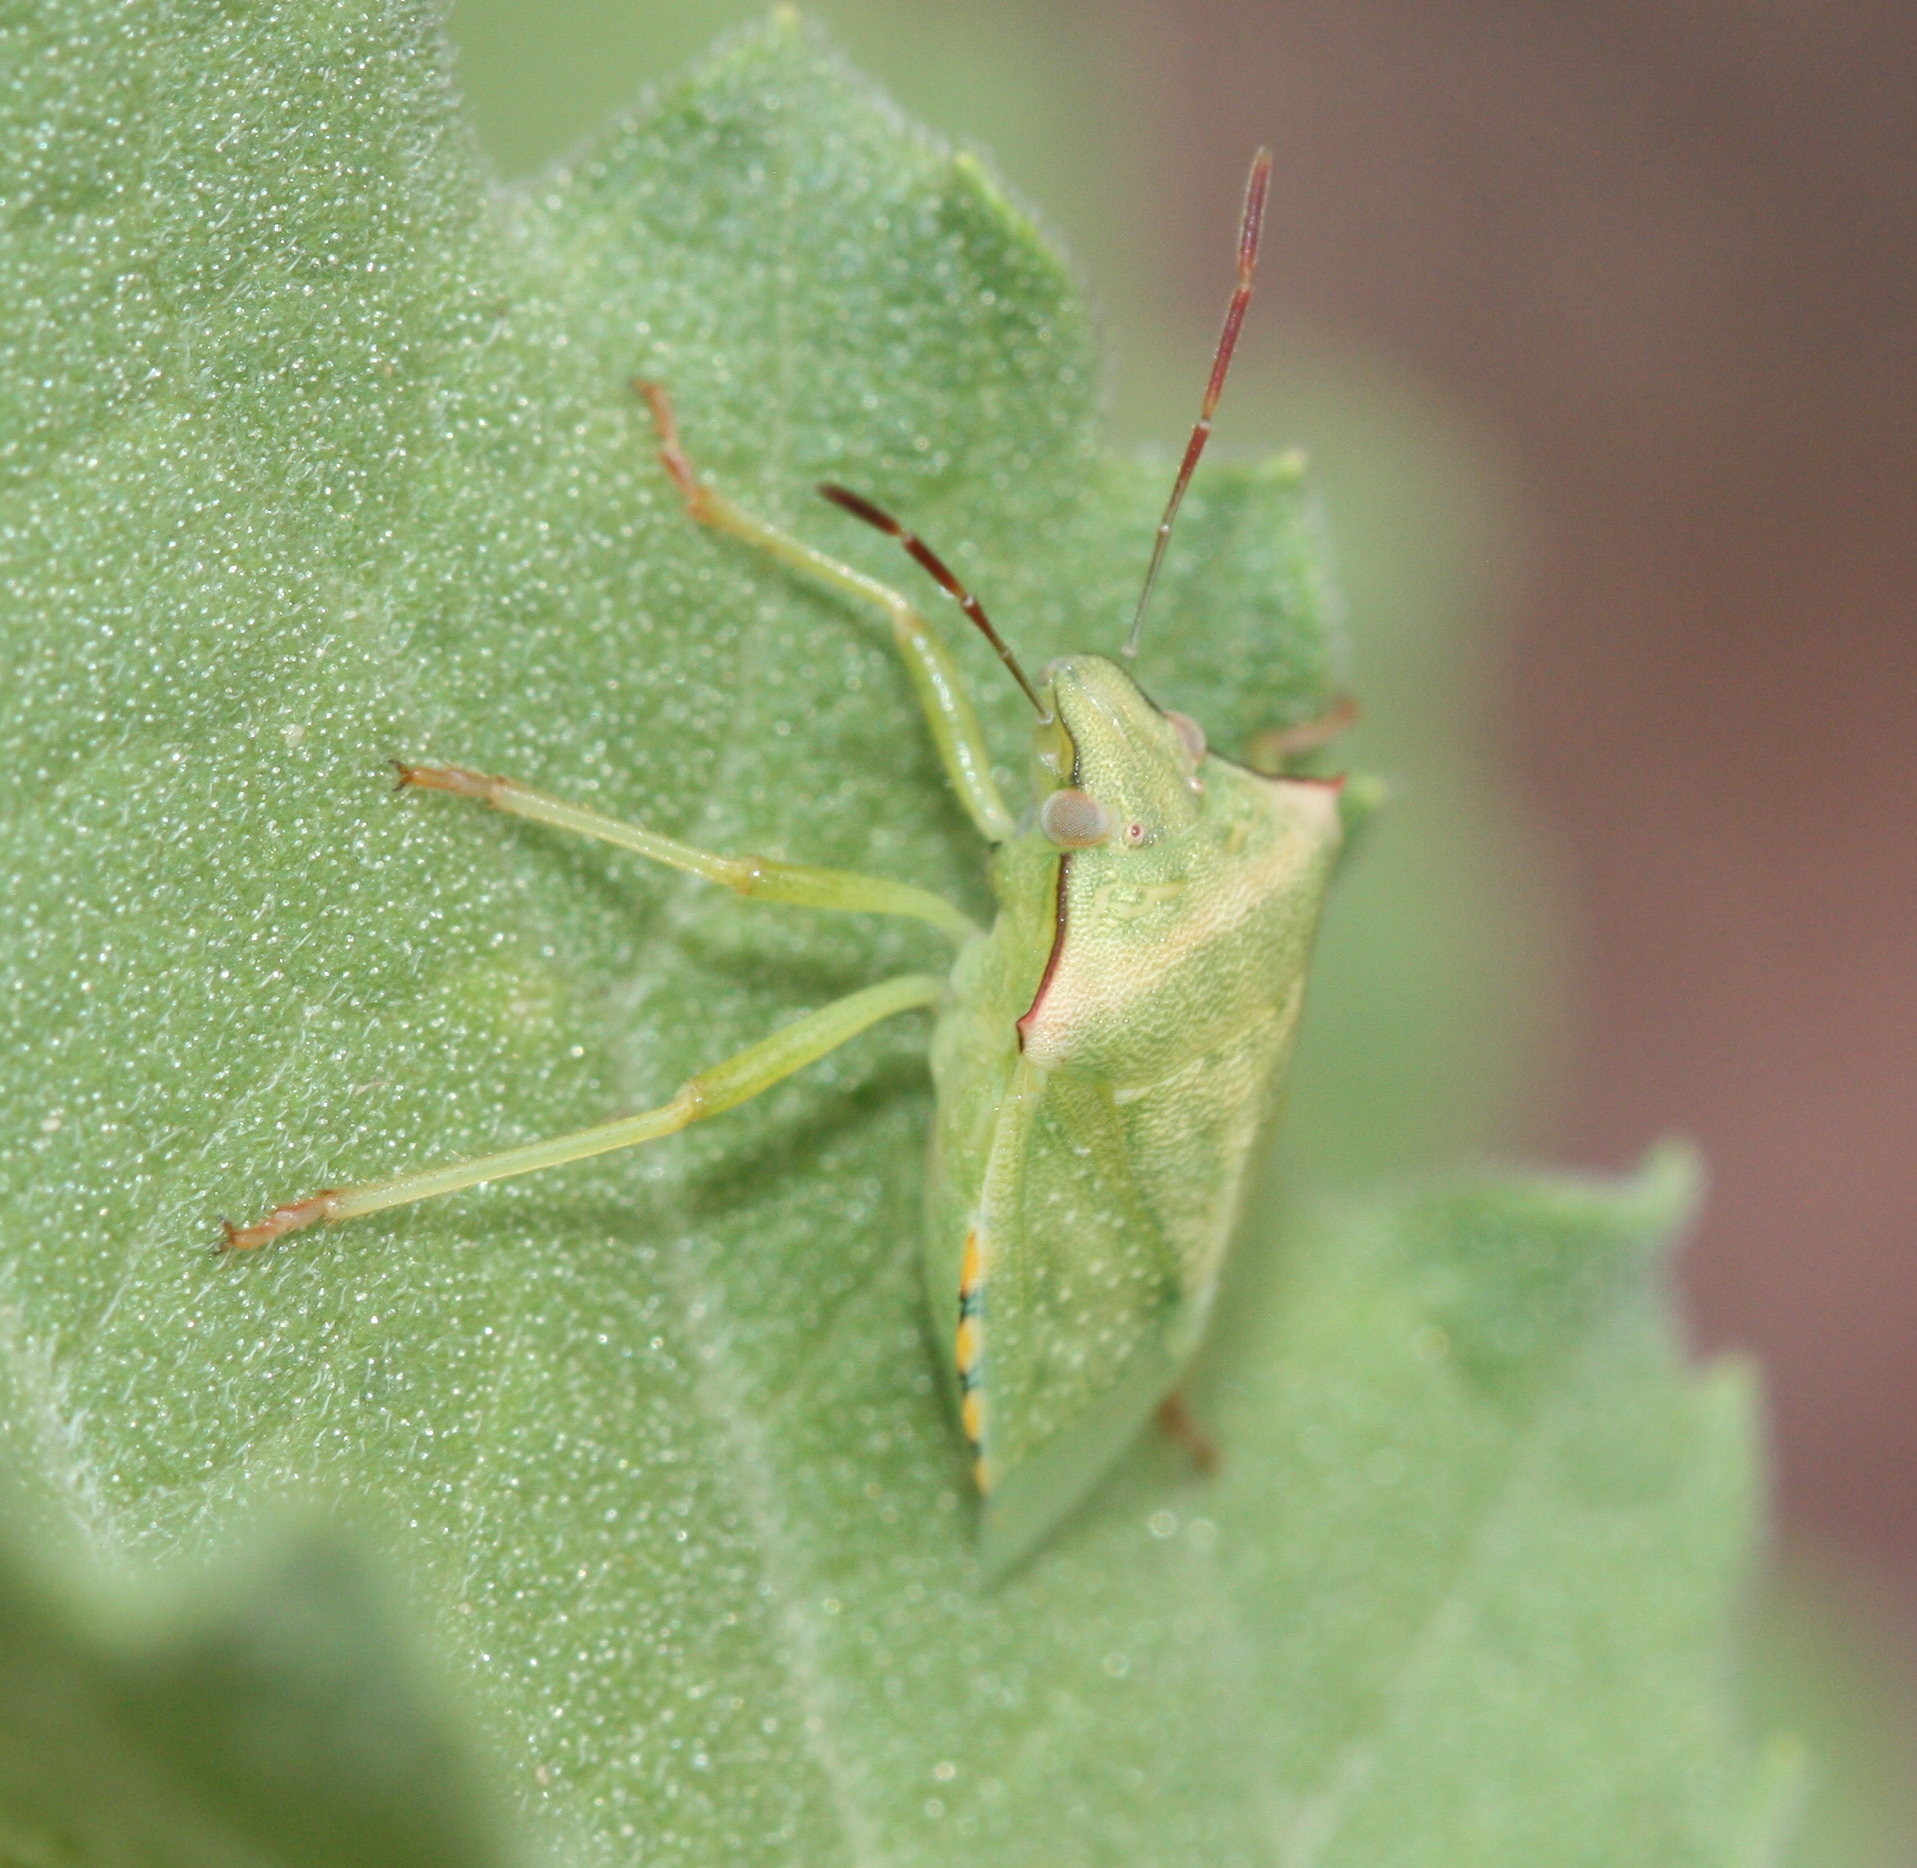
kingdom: Animalia
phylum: Arthropoda
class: Insecta
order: Hemiptera
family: Pentatomidae
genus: Thyanta
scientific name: Thyanta accerra
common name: Stink bug
